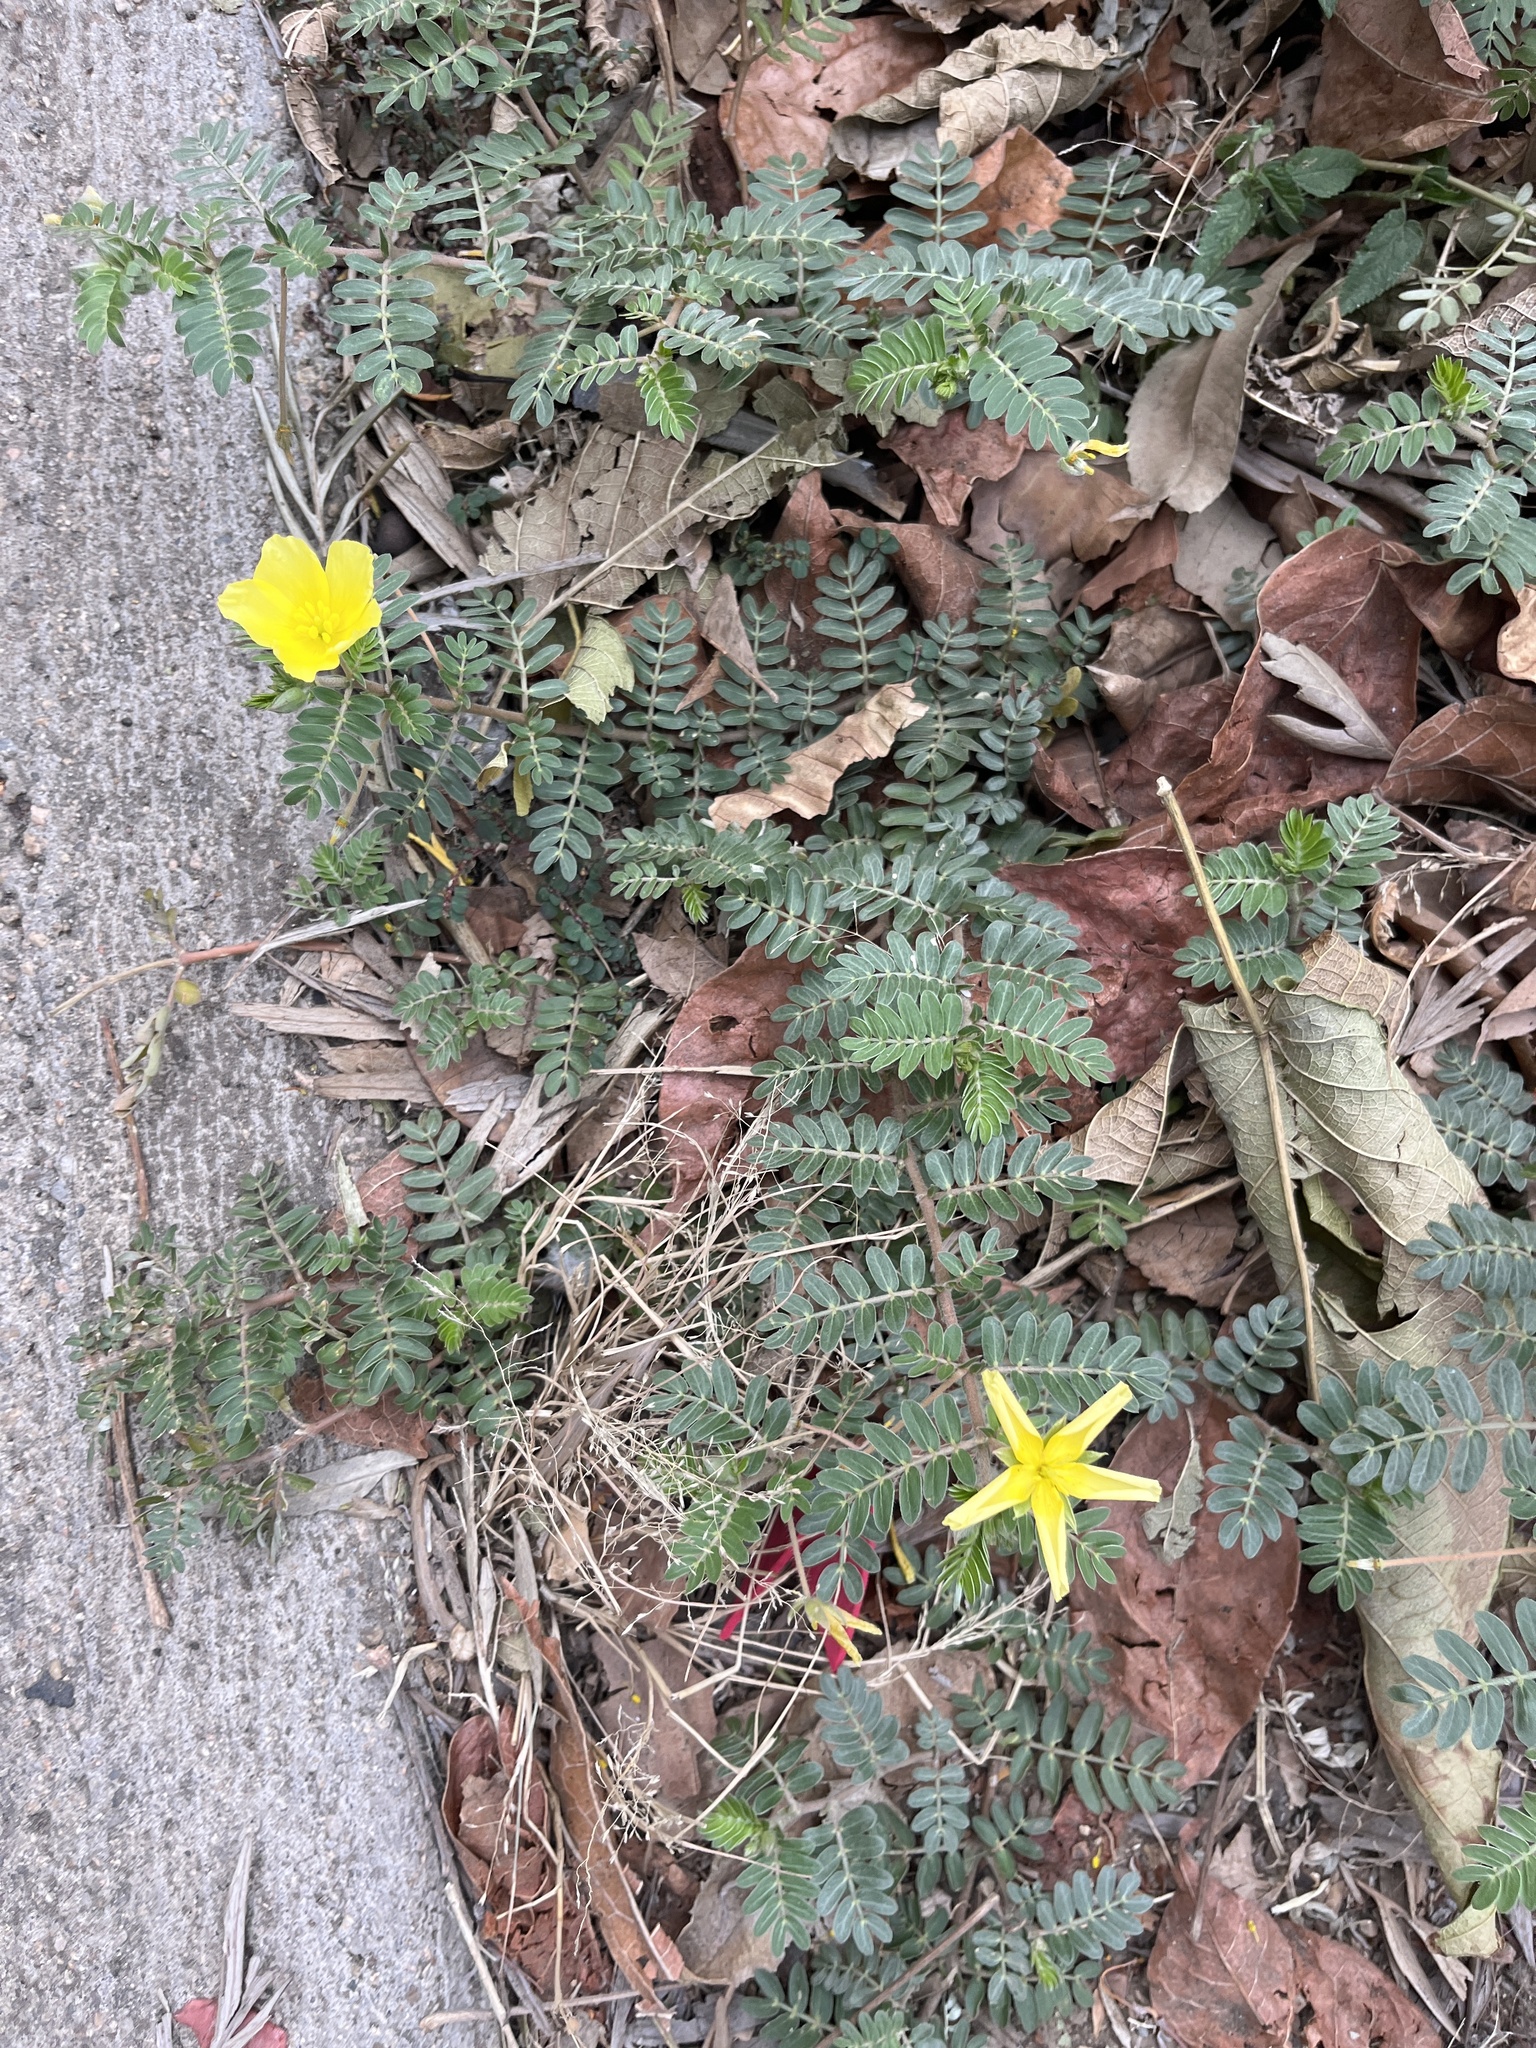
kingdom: Plantae
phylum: Tracheophyta
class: Magnoliopsida
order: Zygophyllales
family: Zygophyllaceae
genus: Tribulus
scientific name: Tribulus cistoides
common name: Jamaican feverplant
